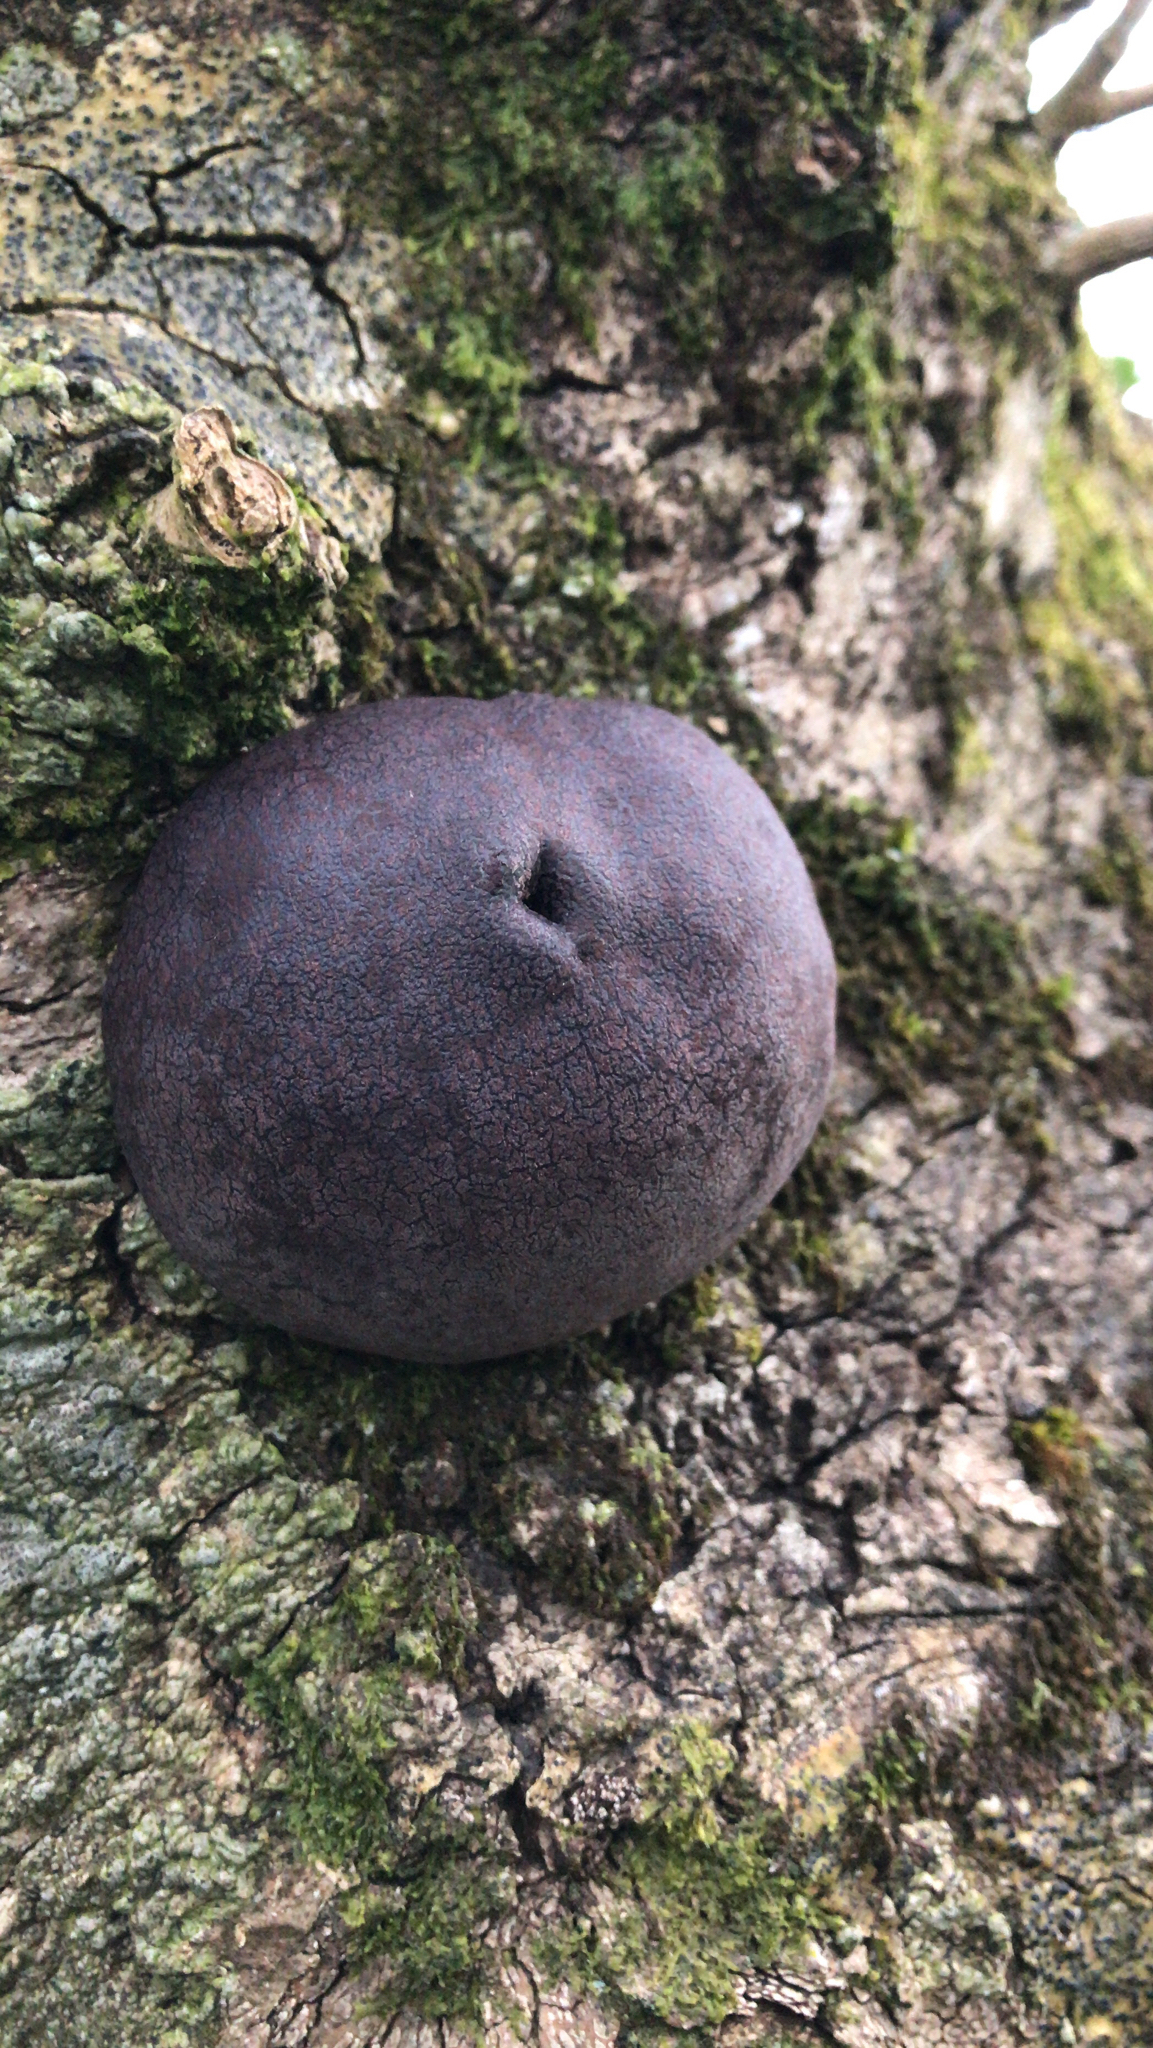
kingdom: Fungi
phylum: Ascomycota
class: Sordariomycetes
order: Xylariales
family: Hypoxylaceae
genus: Daldinia
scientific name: Daldinia concentrica
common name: Cramp balls
